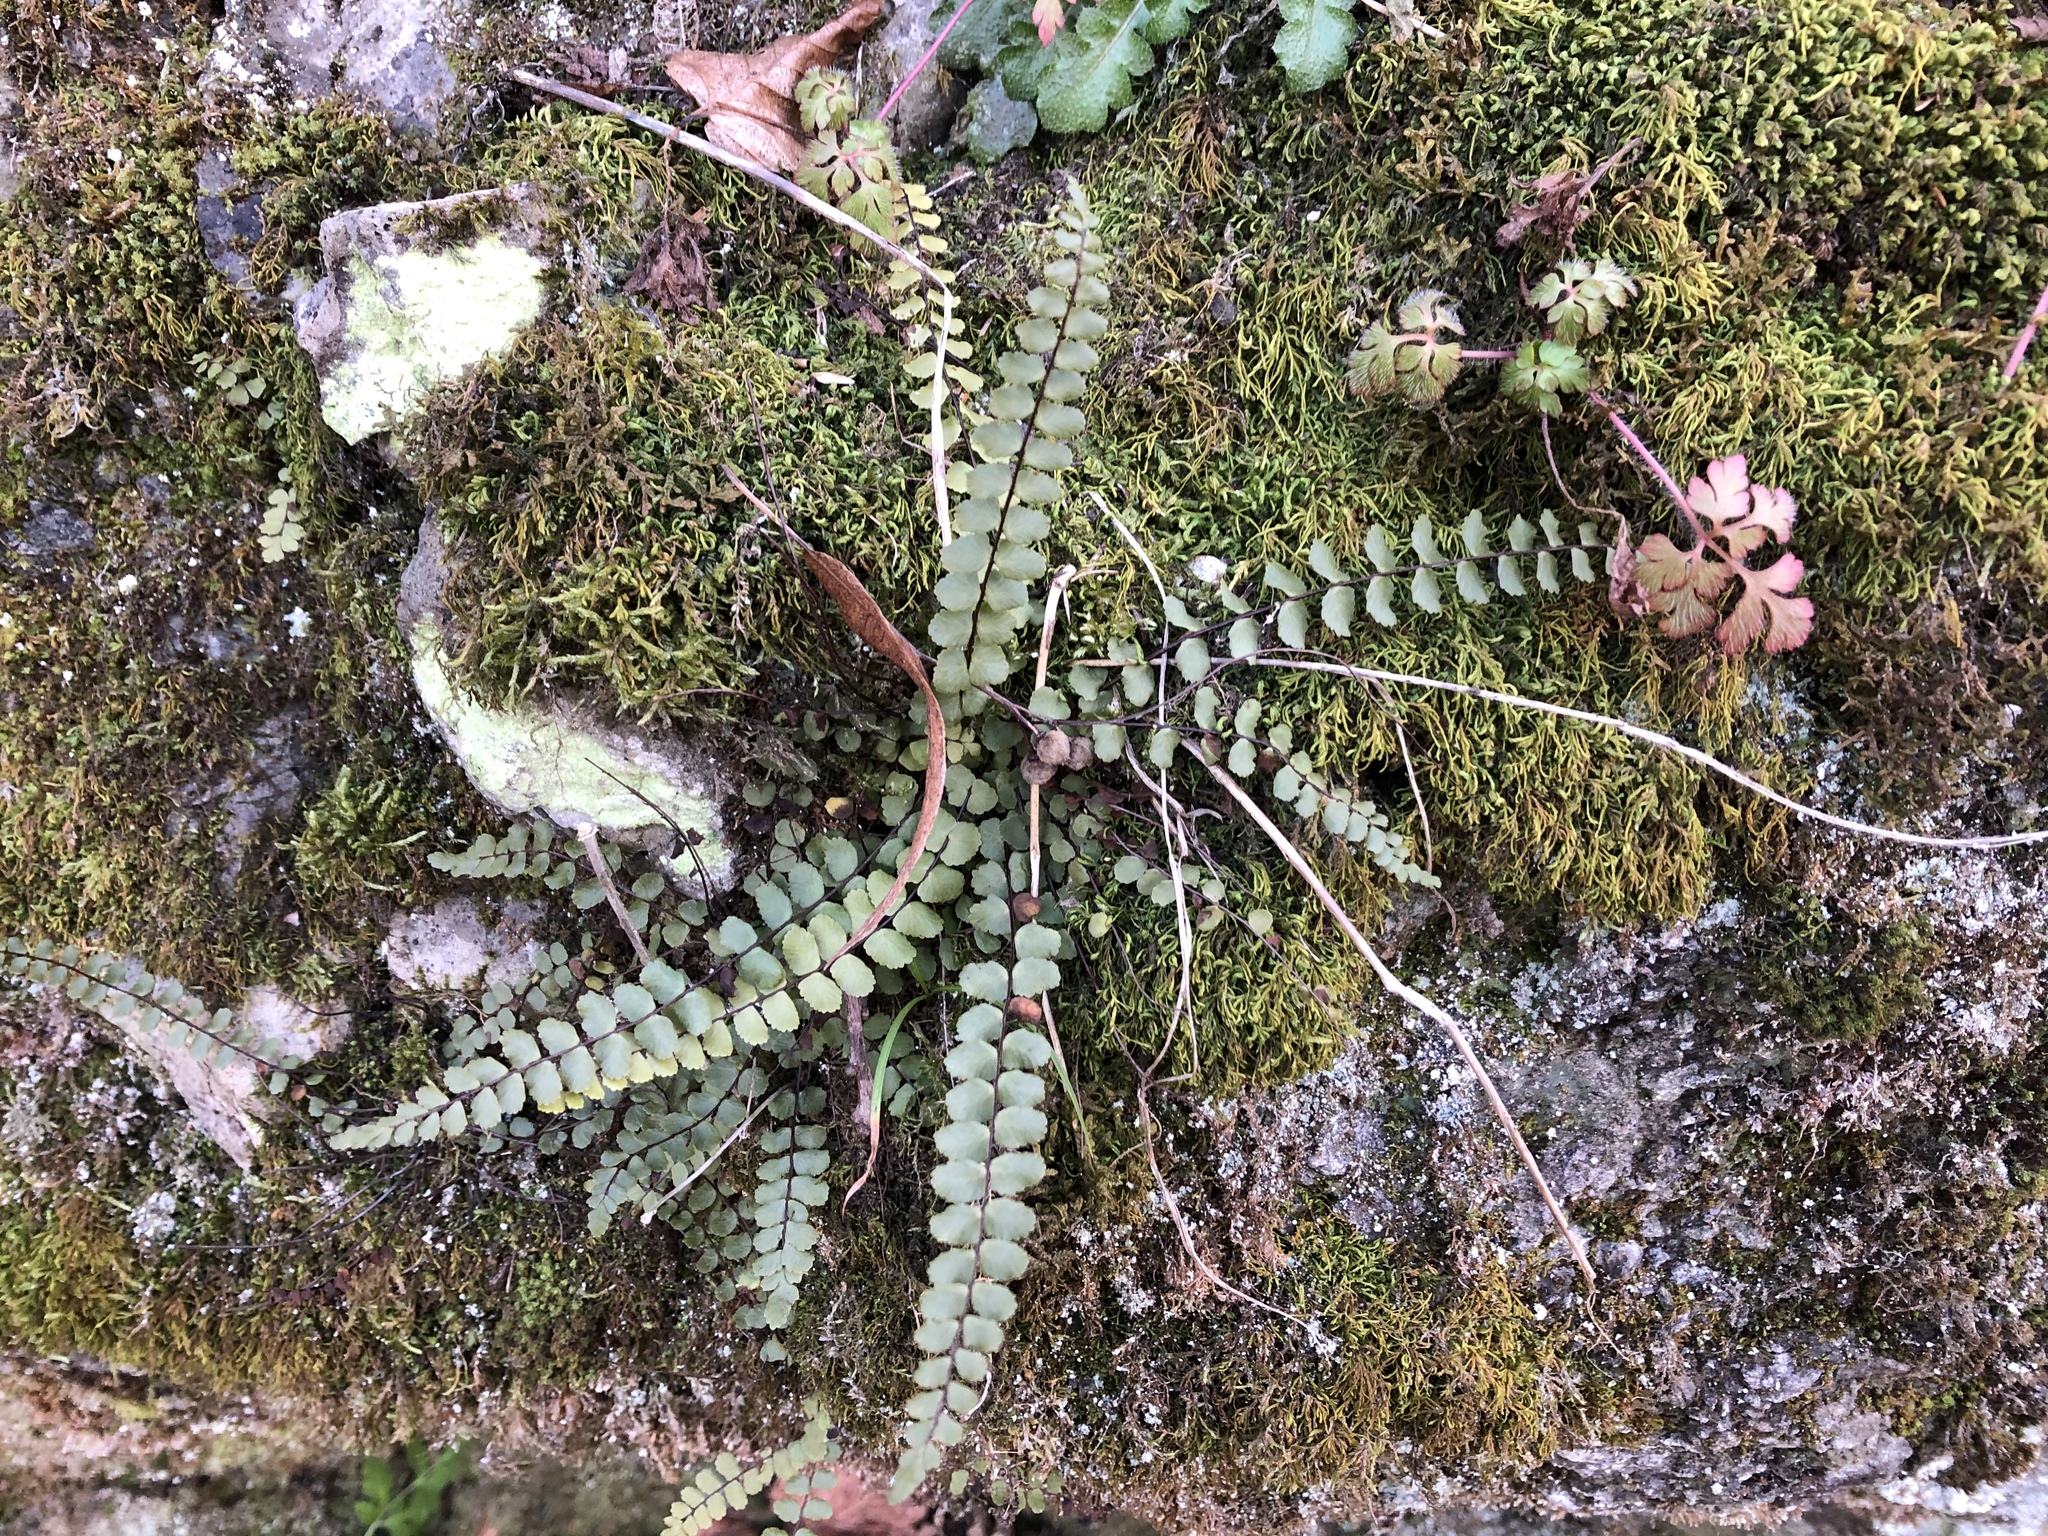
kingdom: Plantae
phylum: Tracheophyta
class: Polypodiopsida
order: Polypodiales
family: Aspleniaceae
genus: Asplenium
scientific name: Asplenium trichomanes
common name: Maidenhair spleenwort
